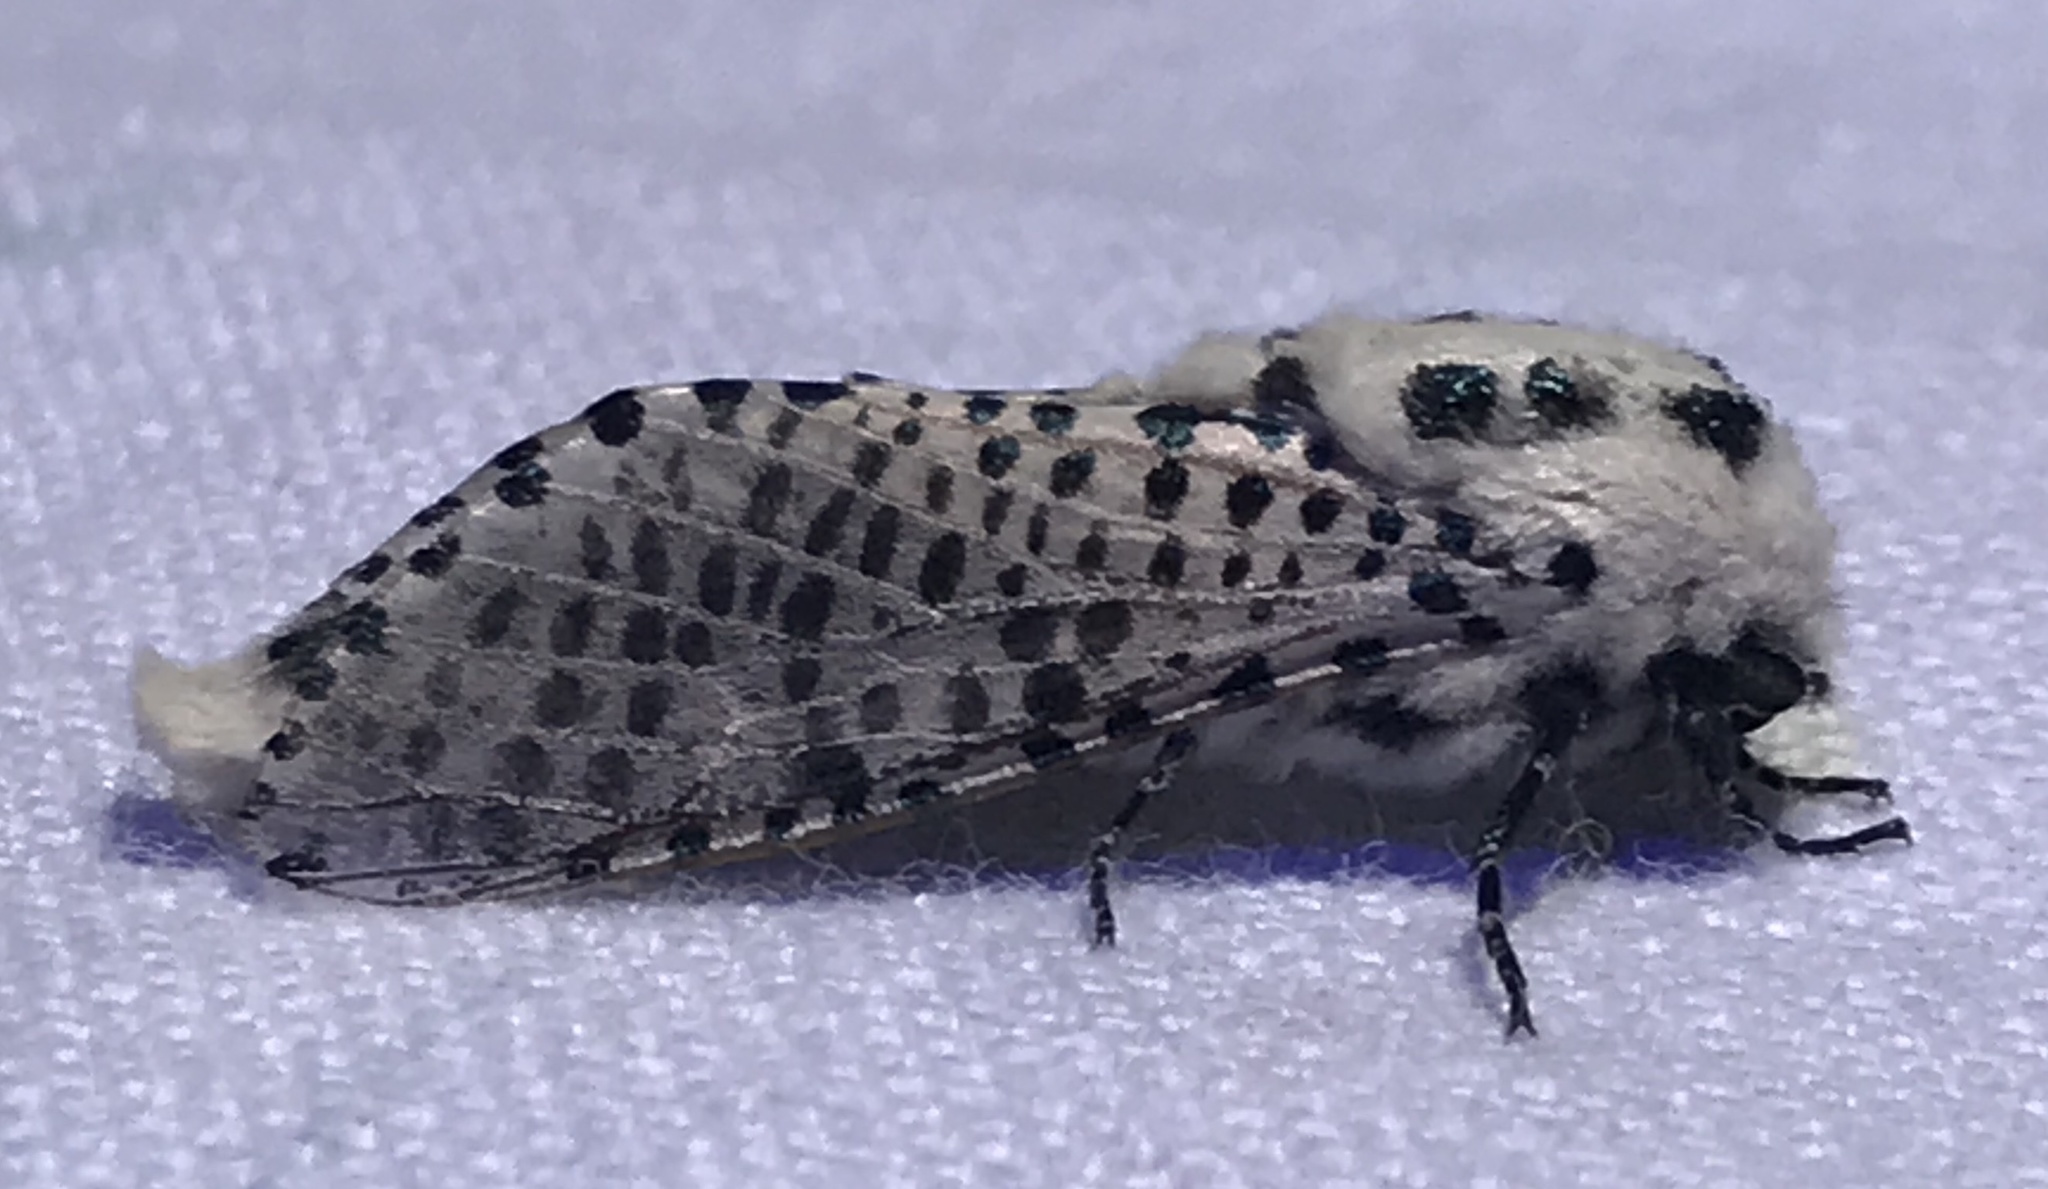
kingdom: Animalia
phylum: Arthropoda
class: Insecta
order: Lepidoptera
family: Cossidae
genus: Zeuzera
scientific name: Zeuzera pyrina
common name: Leopard moth
